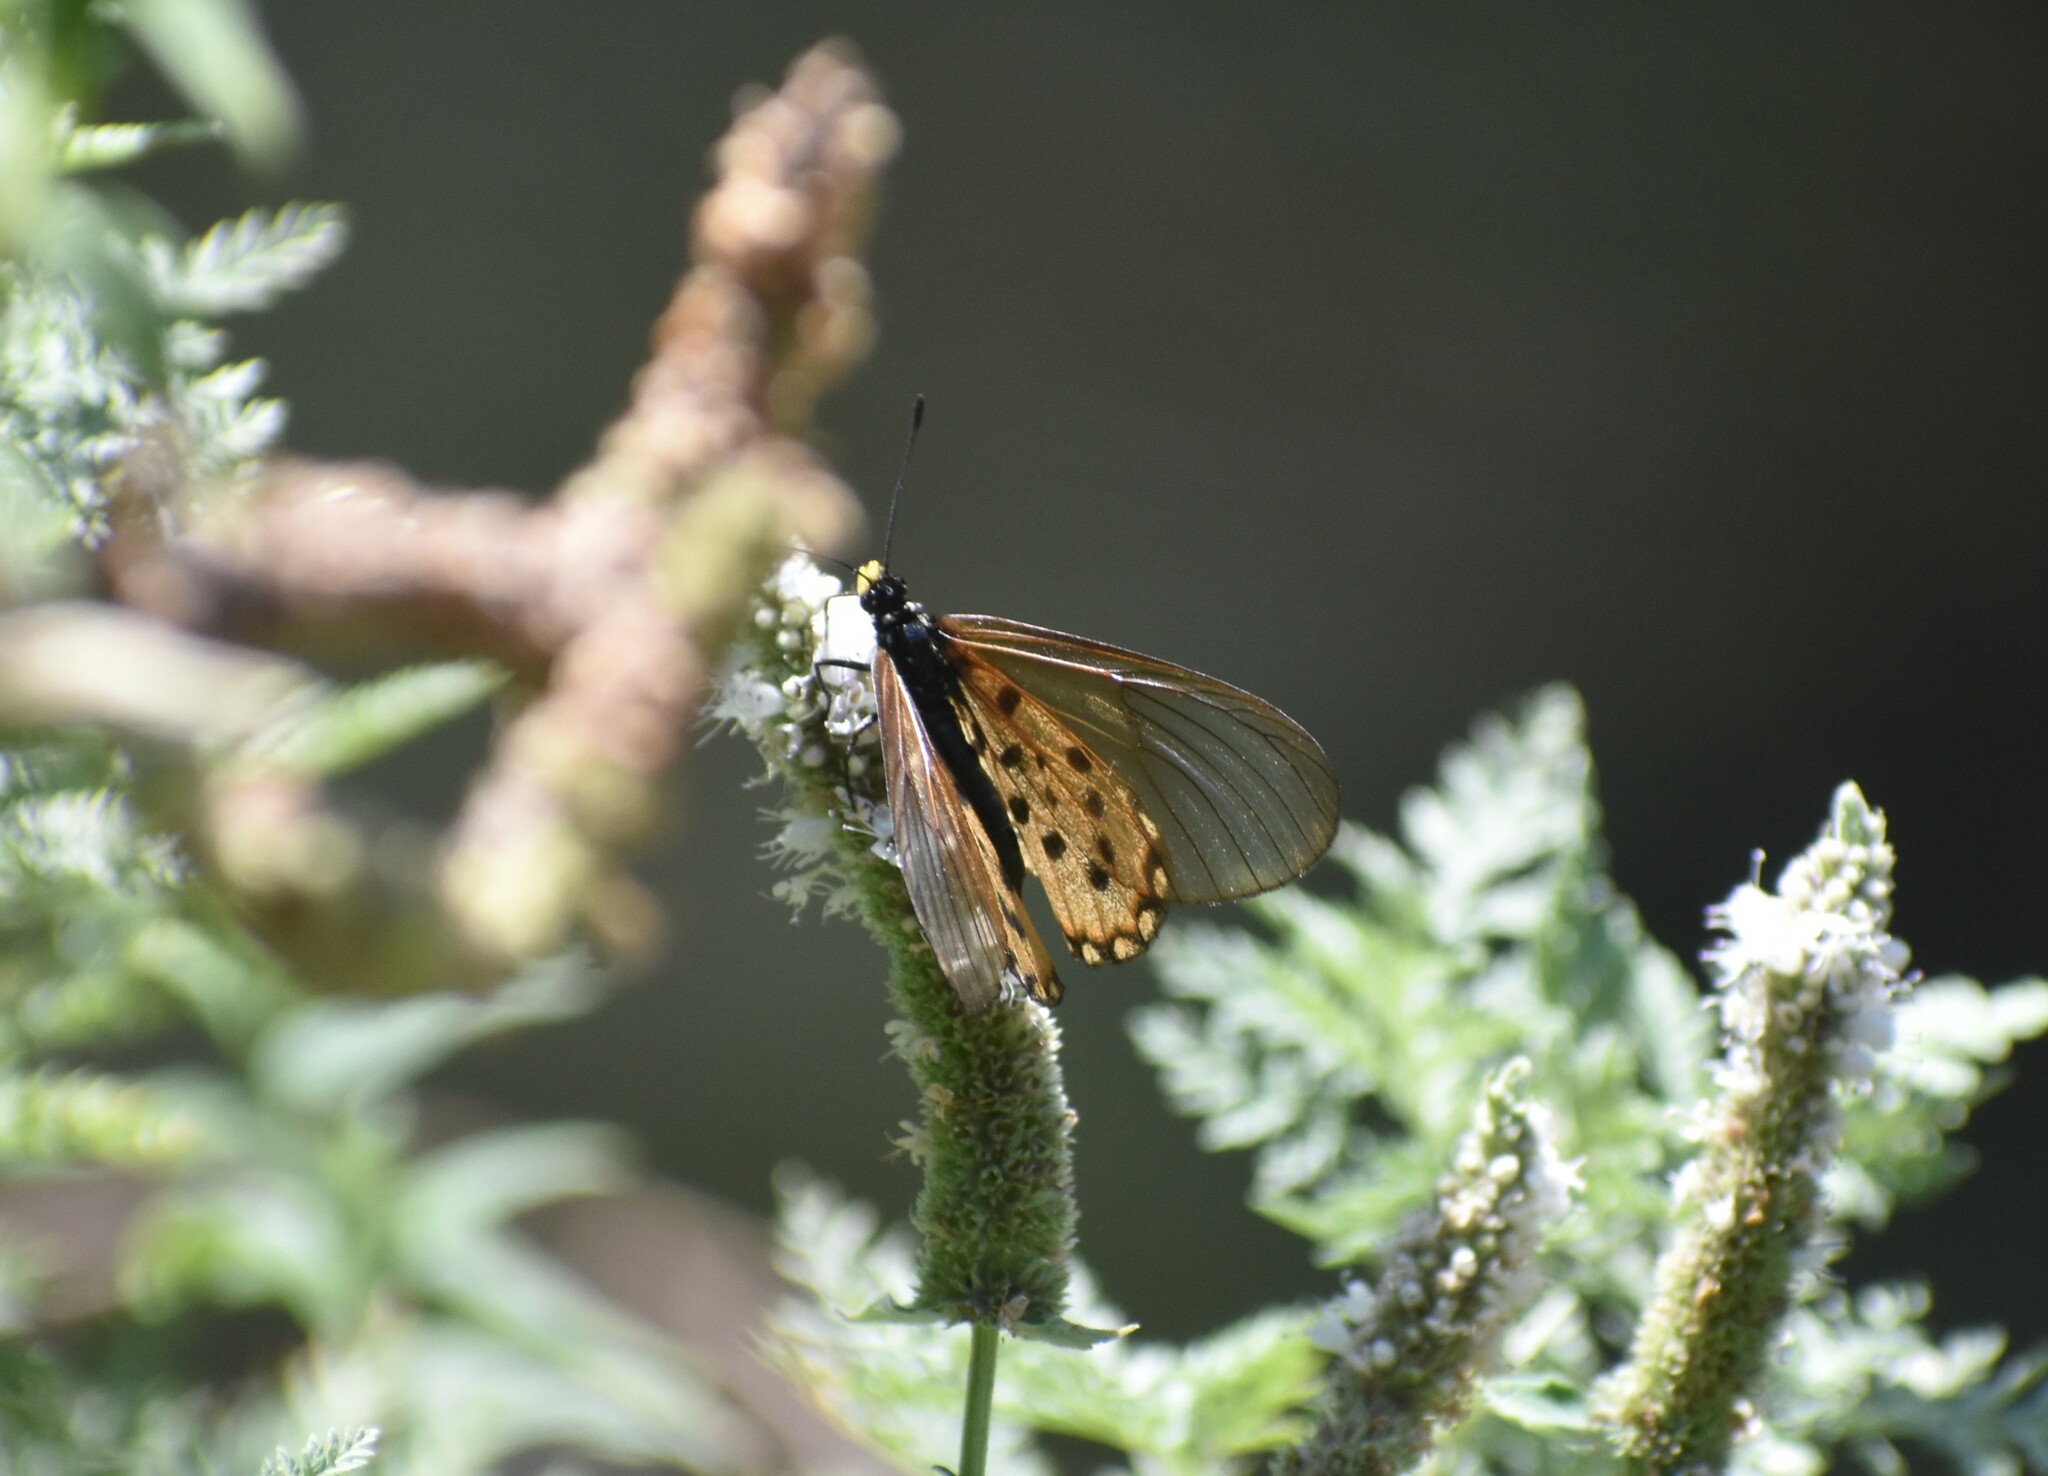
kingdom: Animalia
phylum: Arthropoda
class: Insecta
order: Lepidoptera
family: Nymphalidae
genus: Acraea
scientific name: Acraea horta
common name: Garden acraea
